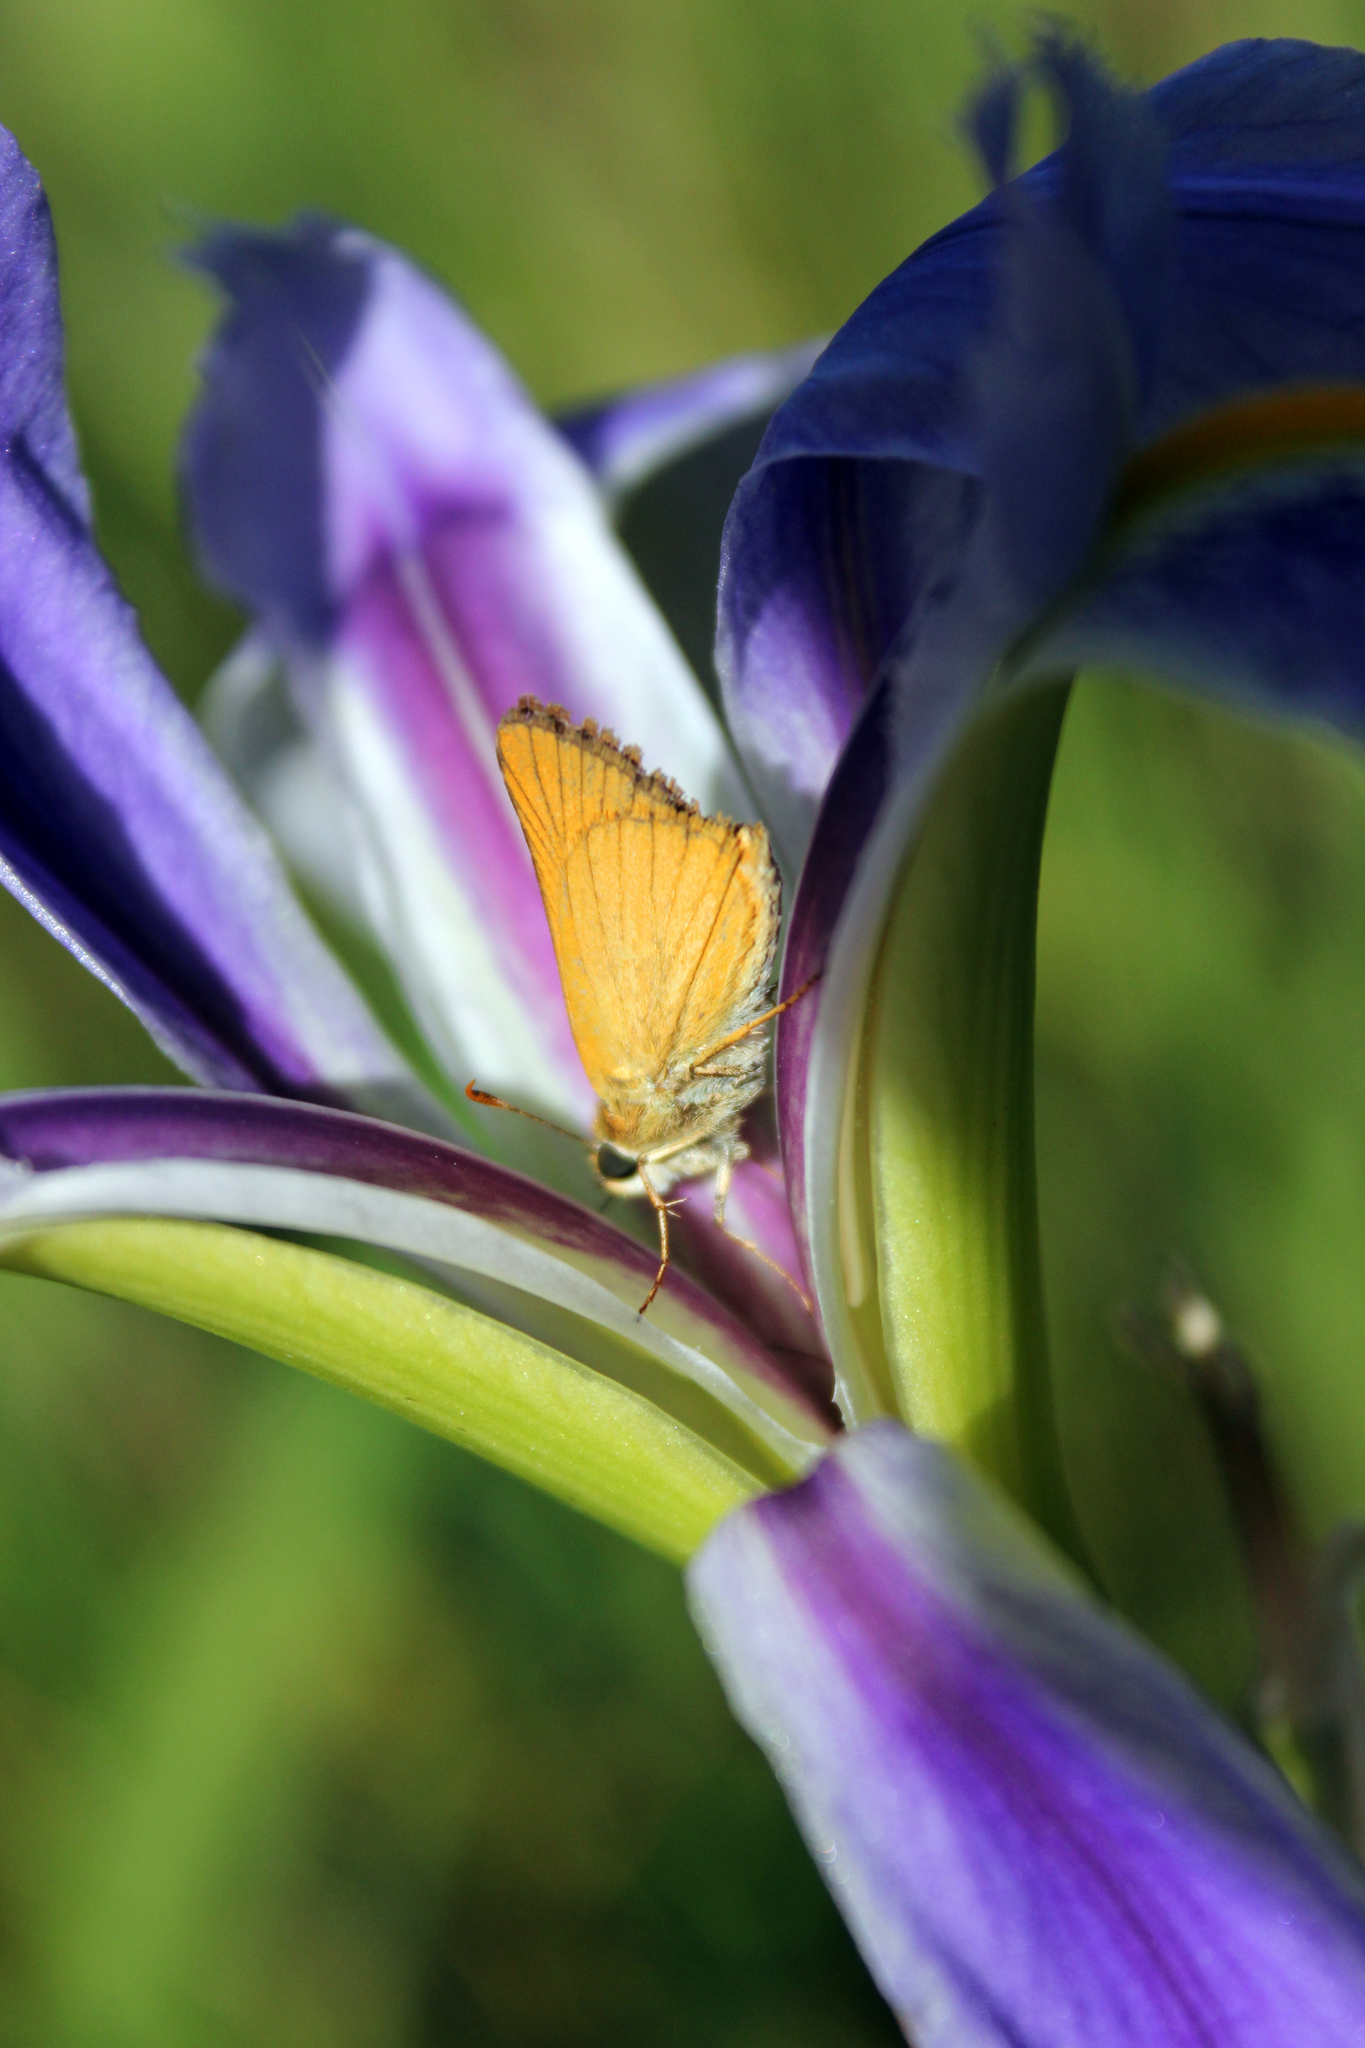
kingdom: Animalia
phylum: Arthropoda
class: Insecta
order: Lepidoptera
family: Hesperiidae
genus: Atrytone
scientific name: Atrytone delaware
